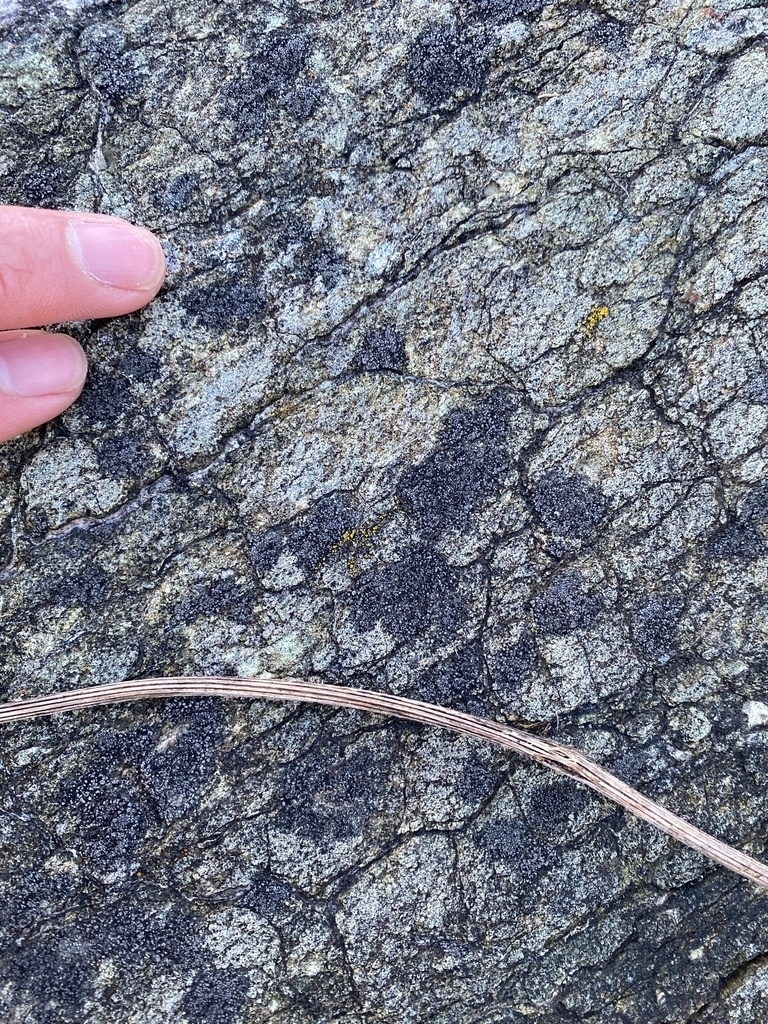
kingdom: Fungi
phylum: Ascomycota
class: Lecanoromycetes
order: Caliciales
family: Physciaceae
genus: Rinodina
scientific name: Rinodina cana
